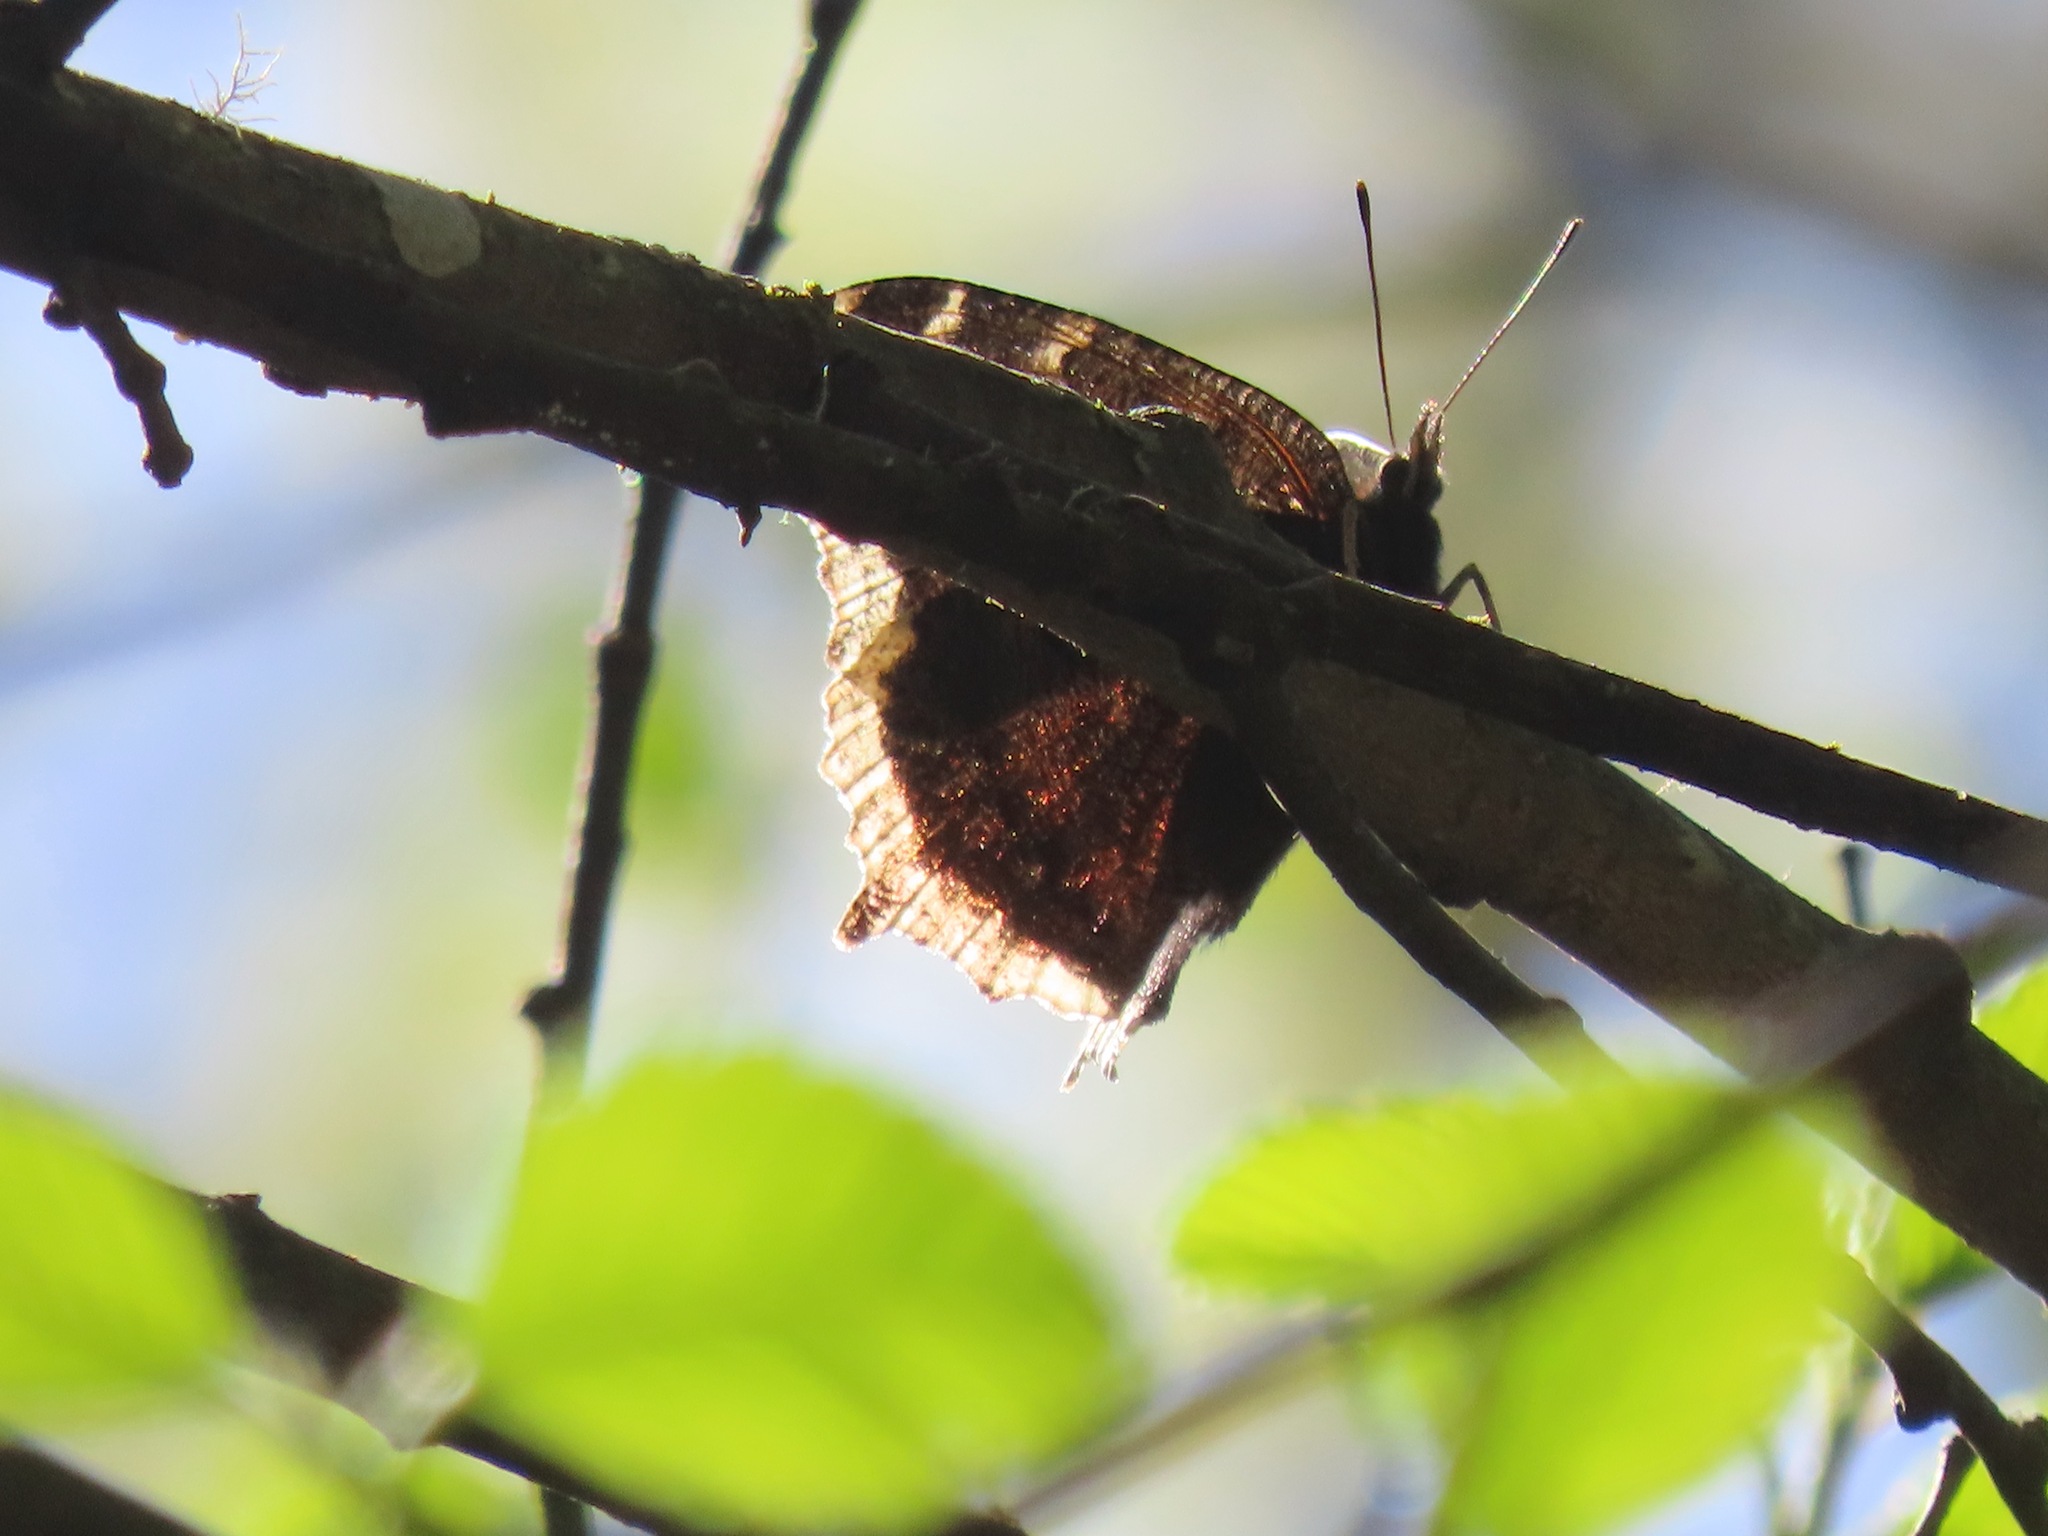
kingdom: Animalia
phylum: Arthropoda
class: Insecta
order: Lepidoptera
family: Nymphalidae
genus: Nymphalis
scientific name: Nymphalis antiopa
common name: Camberwell beauty
